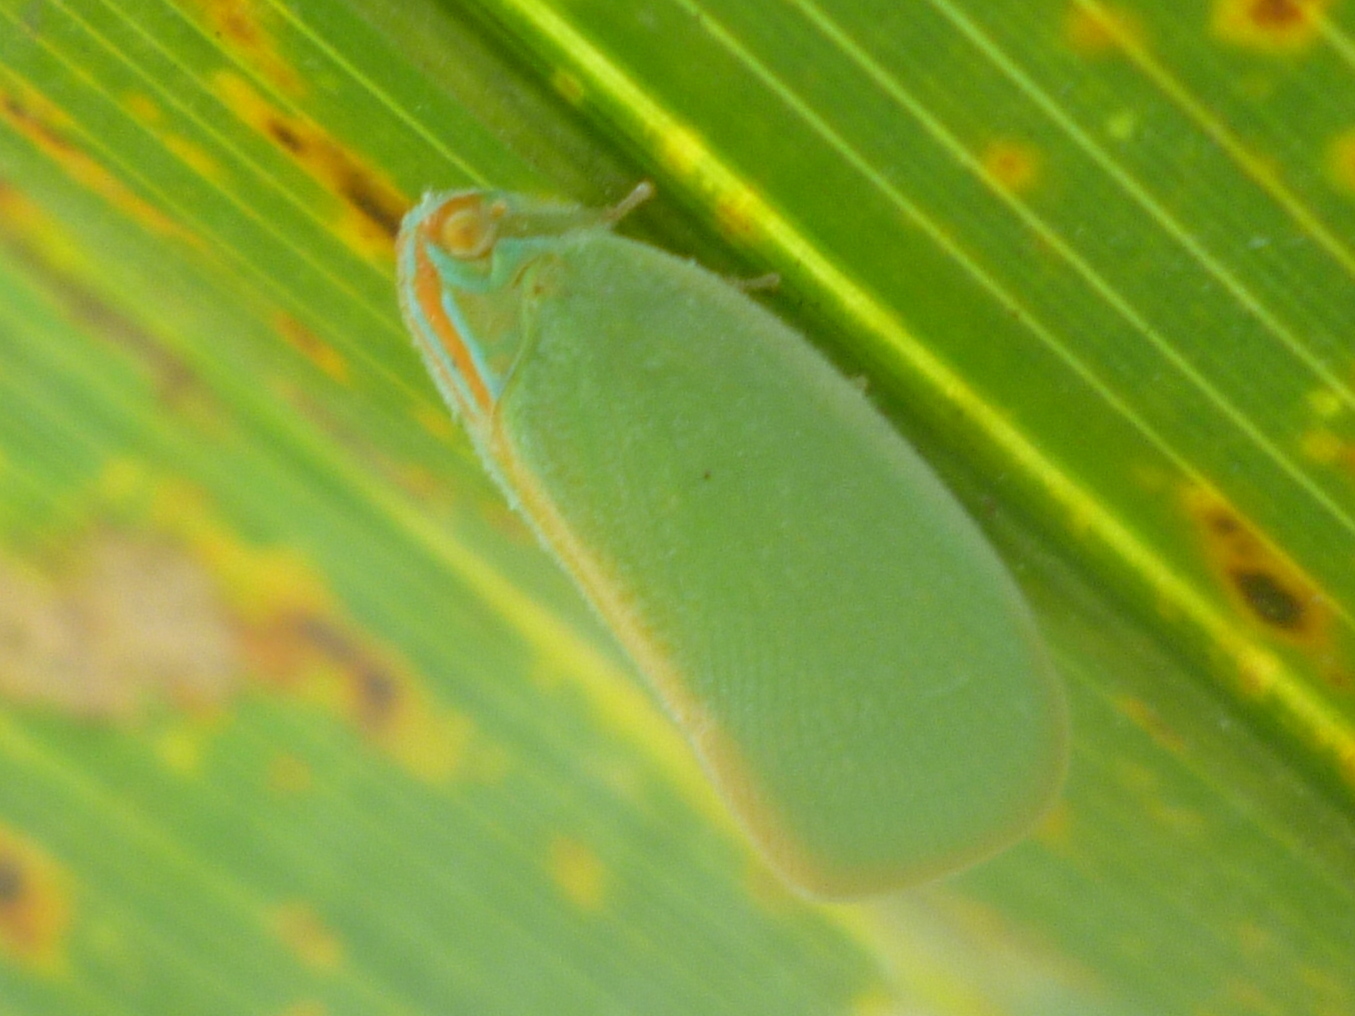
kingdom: Animalia
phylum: Arthropoda
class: Insecta
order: Hemiptera
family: Flatidae
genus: Ormenaria
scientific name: Ormenaria rufifascia
